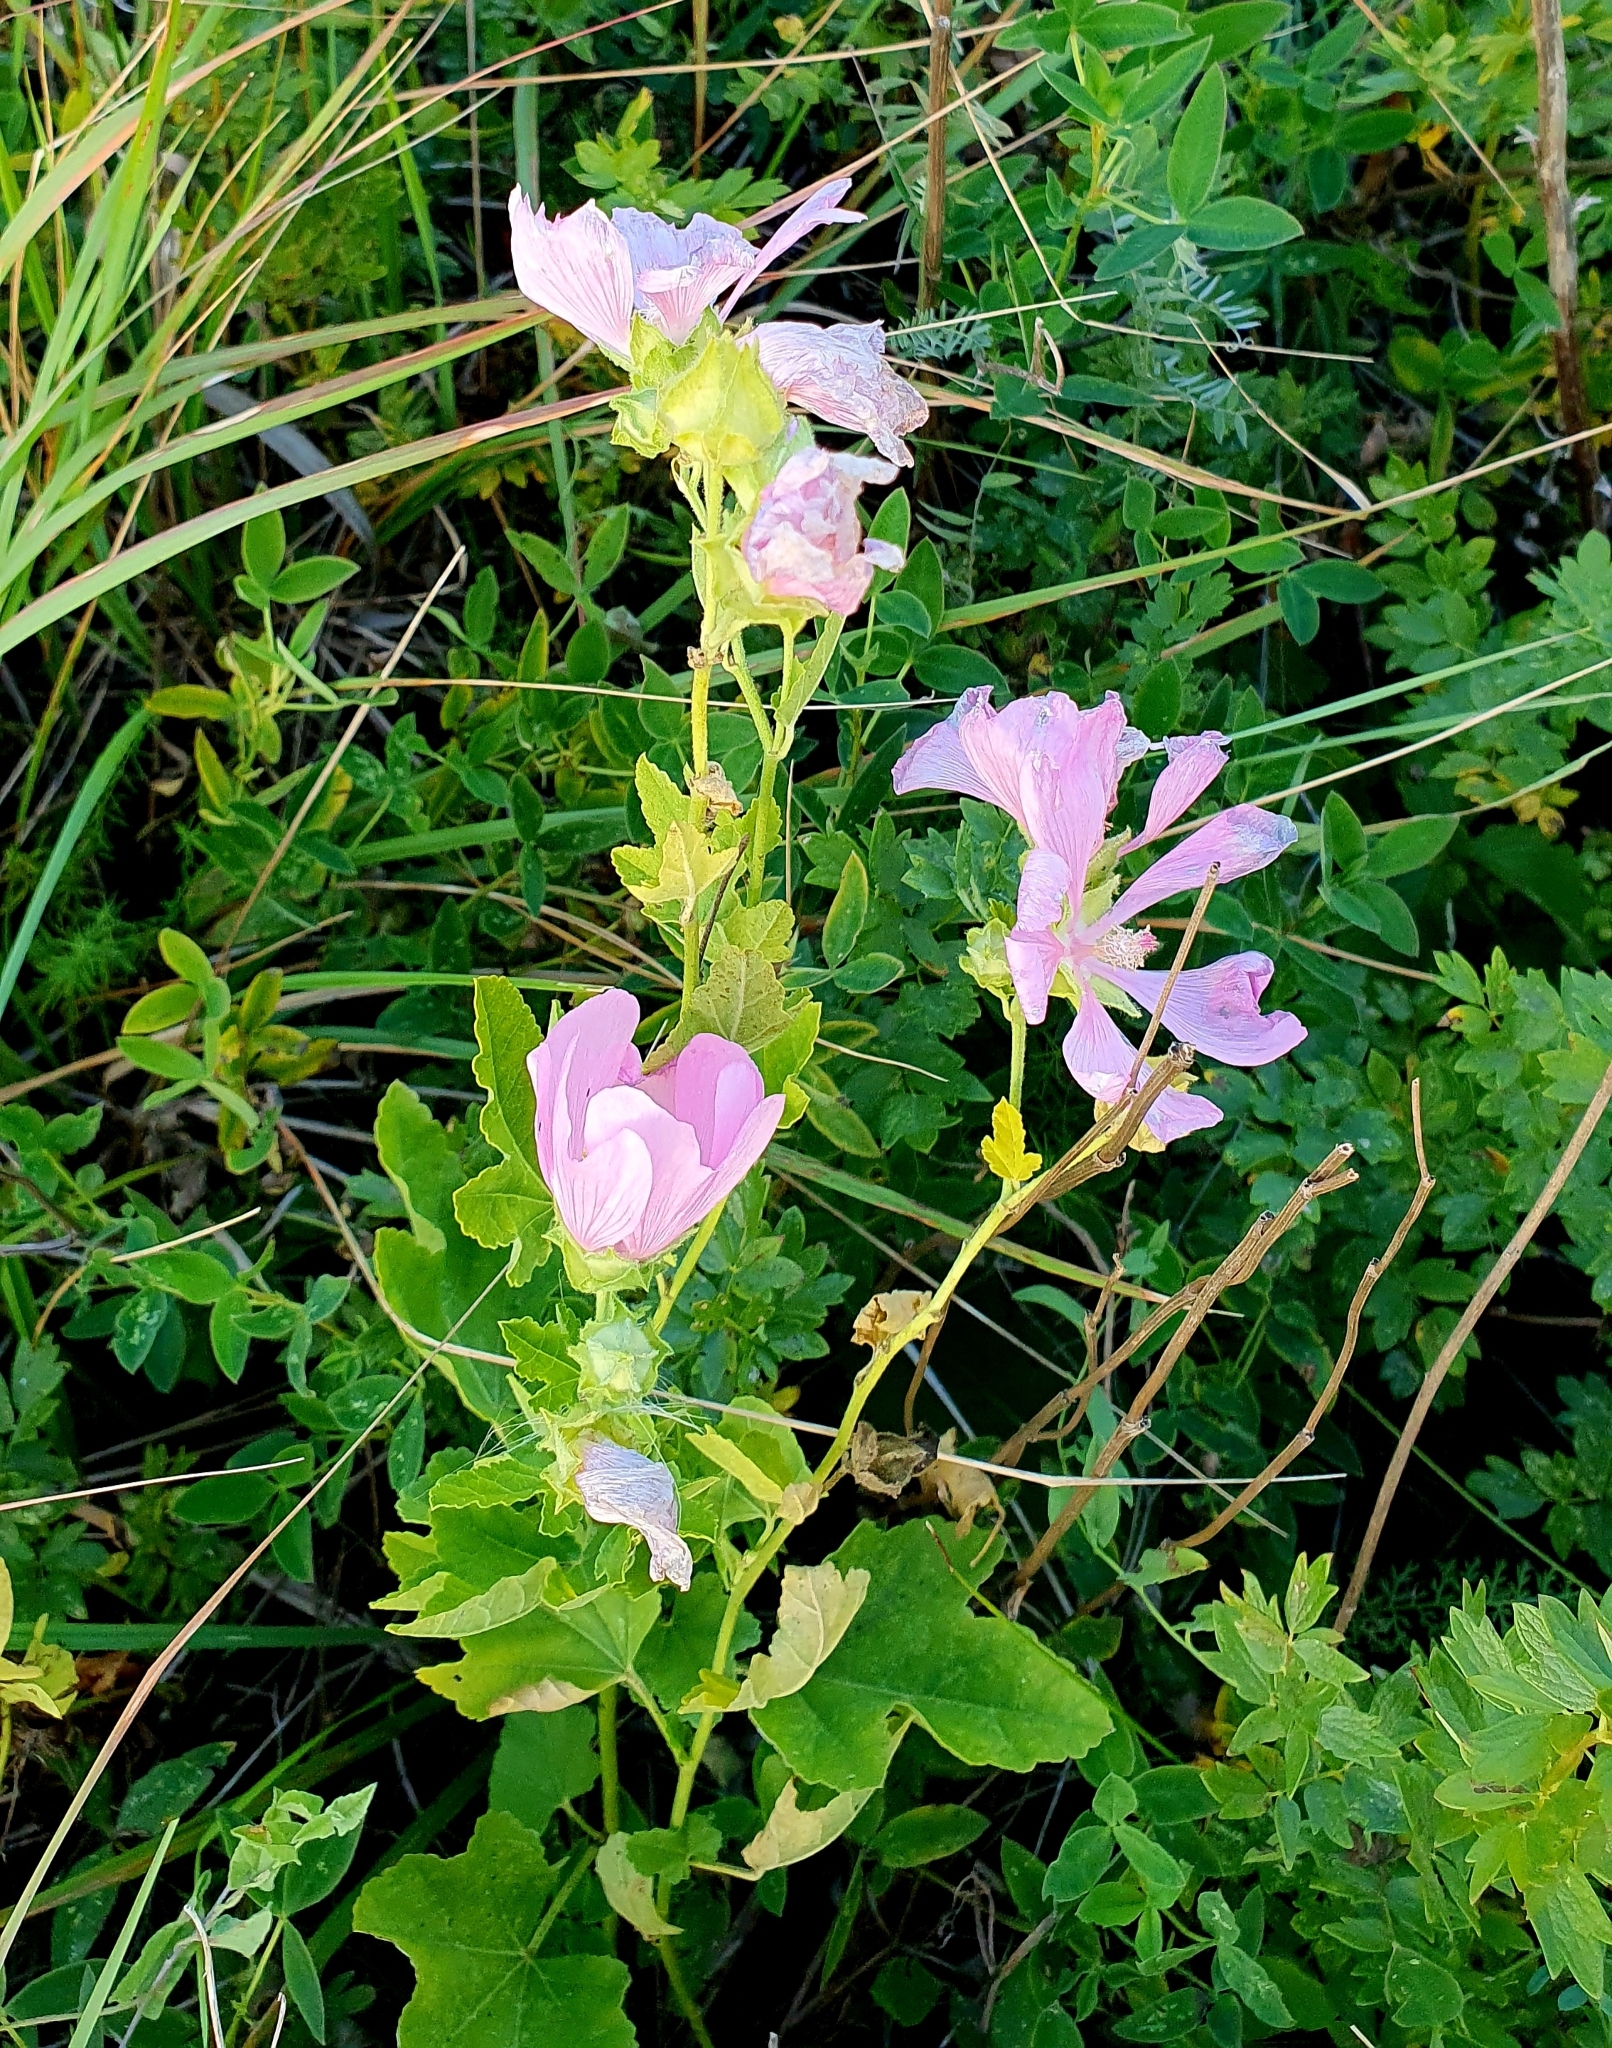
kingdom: Plantae
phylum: Tracheophyta
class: Magnoliopsida
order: Malvales
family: Malvaceae
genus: Malva
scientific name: Malva thuringiaca
